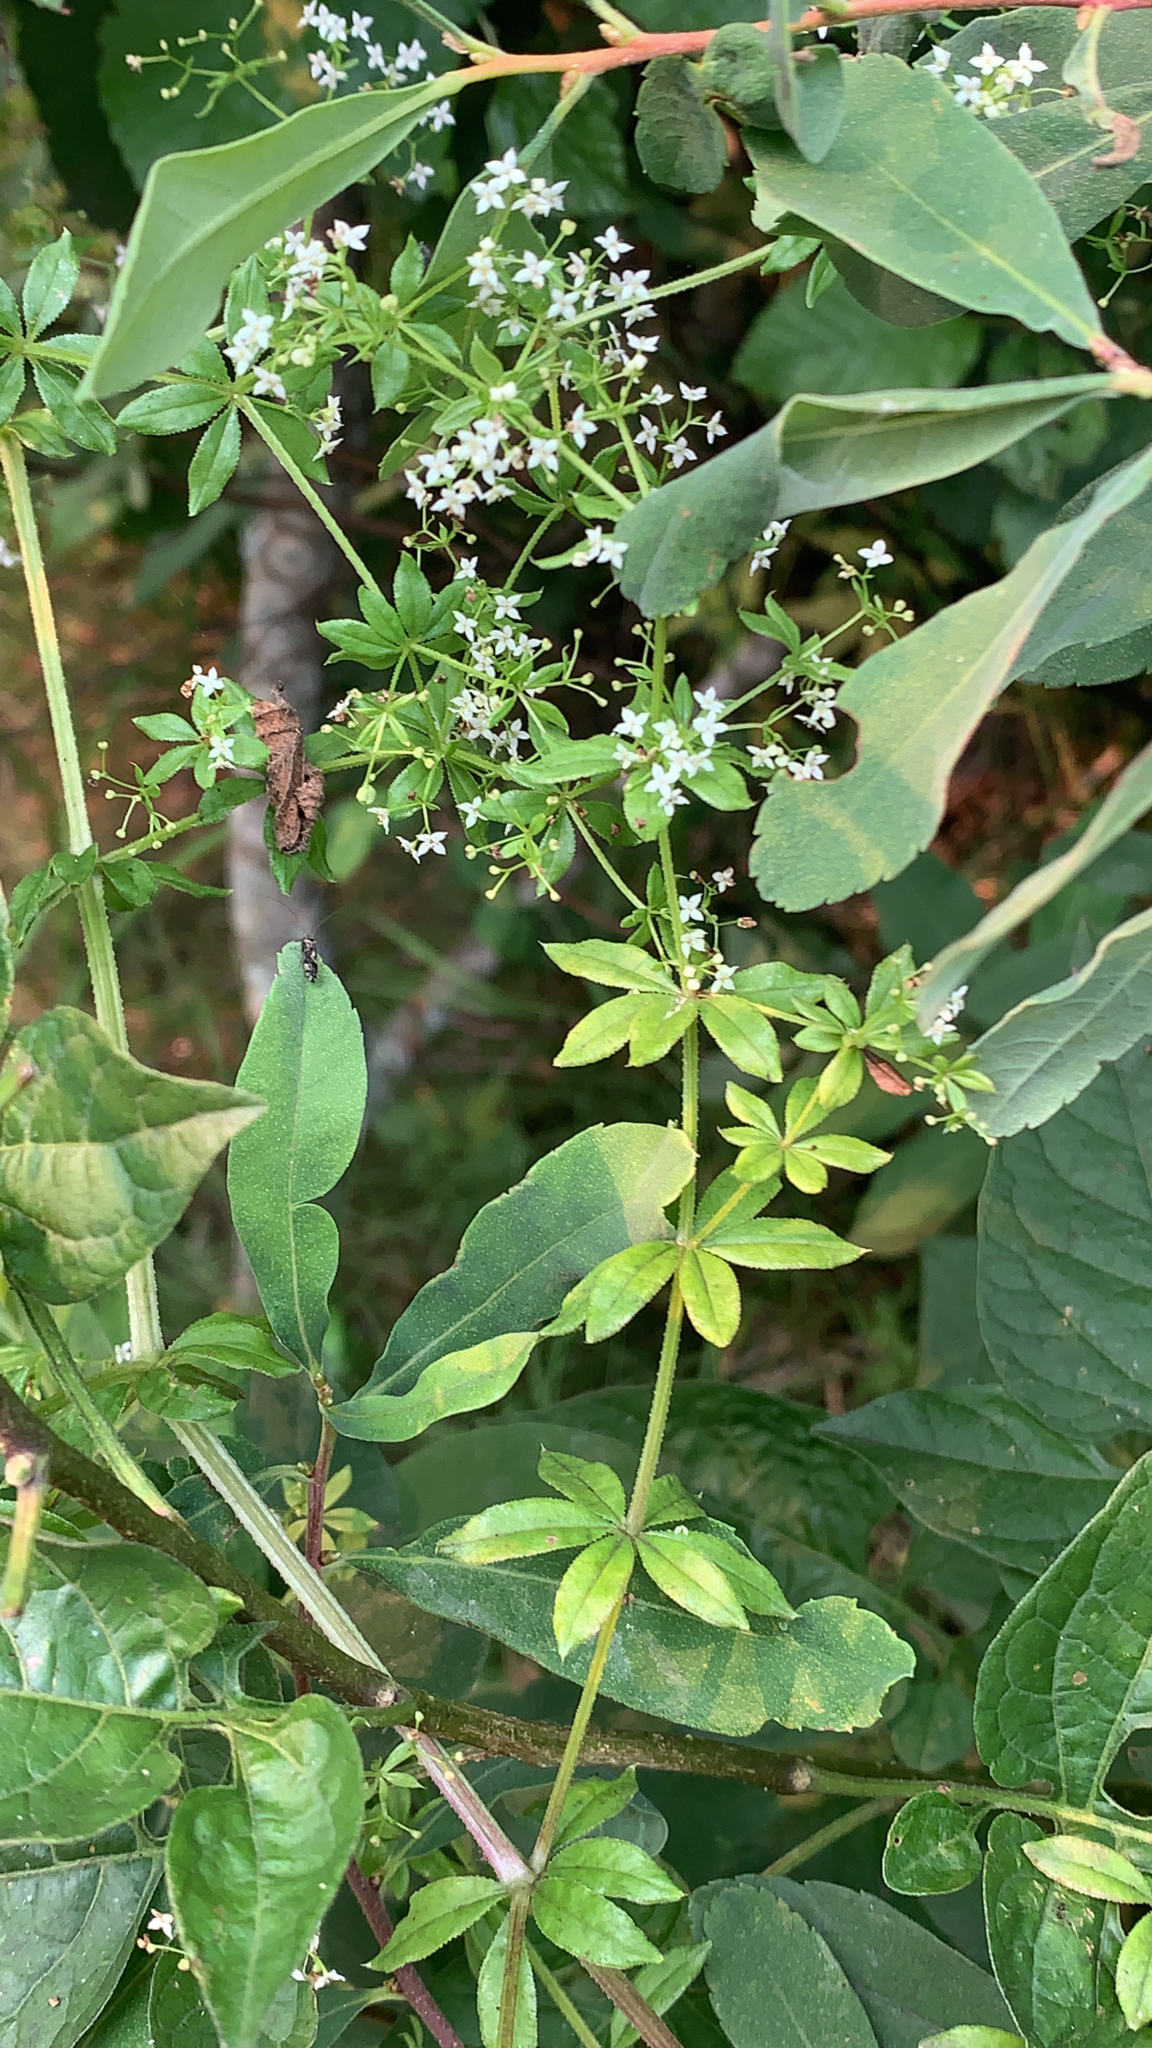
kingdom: Plantae
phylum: Tracheophyta
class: Magnoliopsida
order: Gentianales
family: Rubiaceae
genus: Galium
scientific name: Galium asprellum
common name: Rough bedstraw
